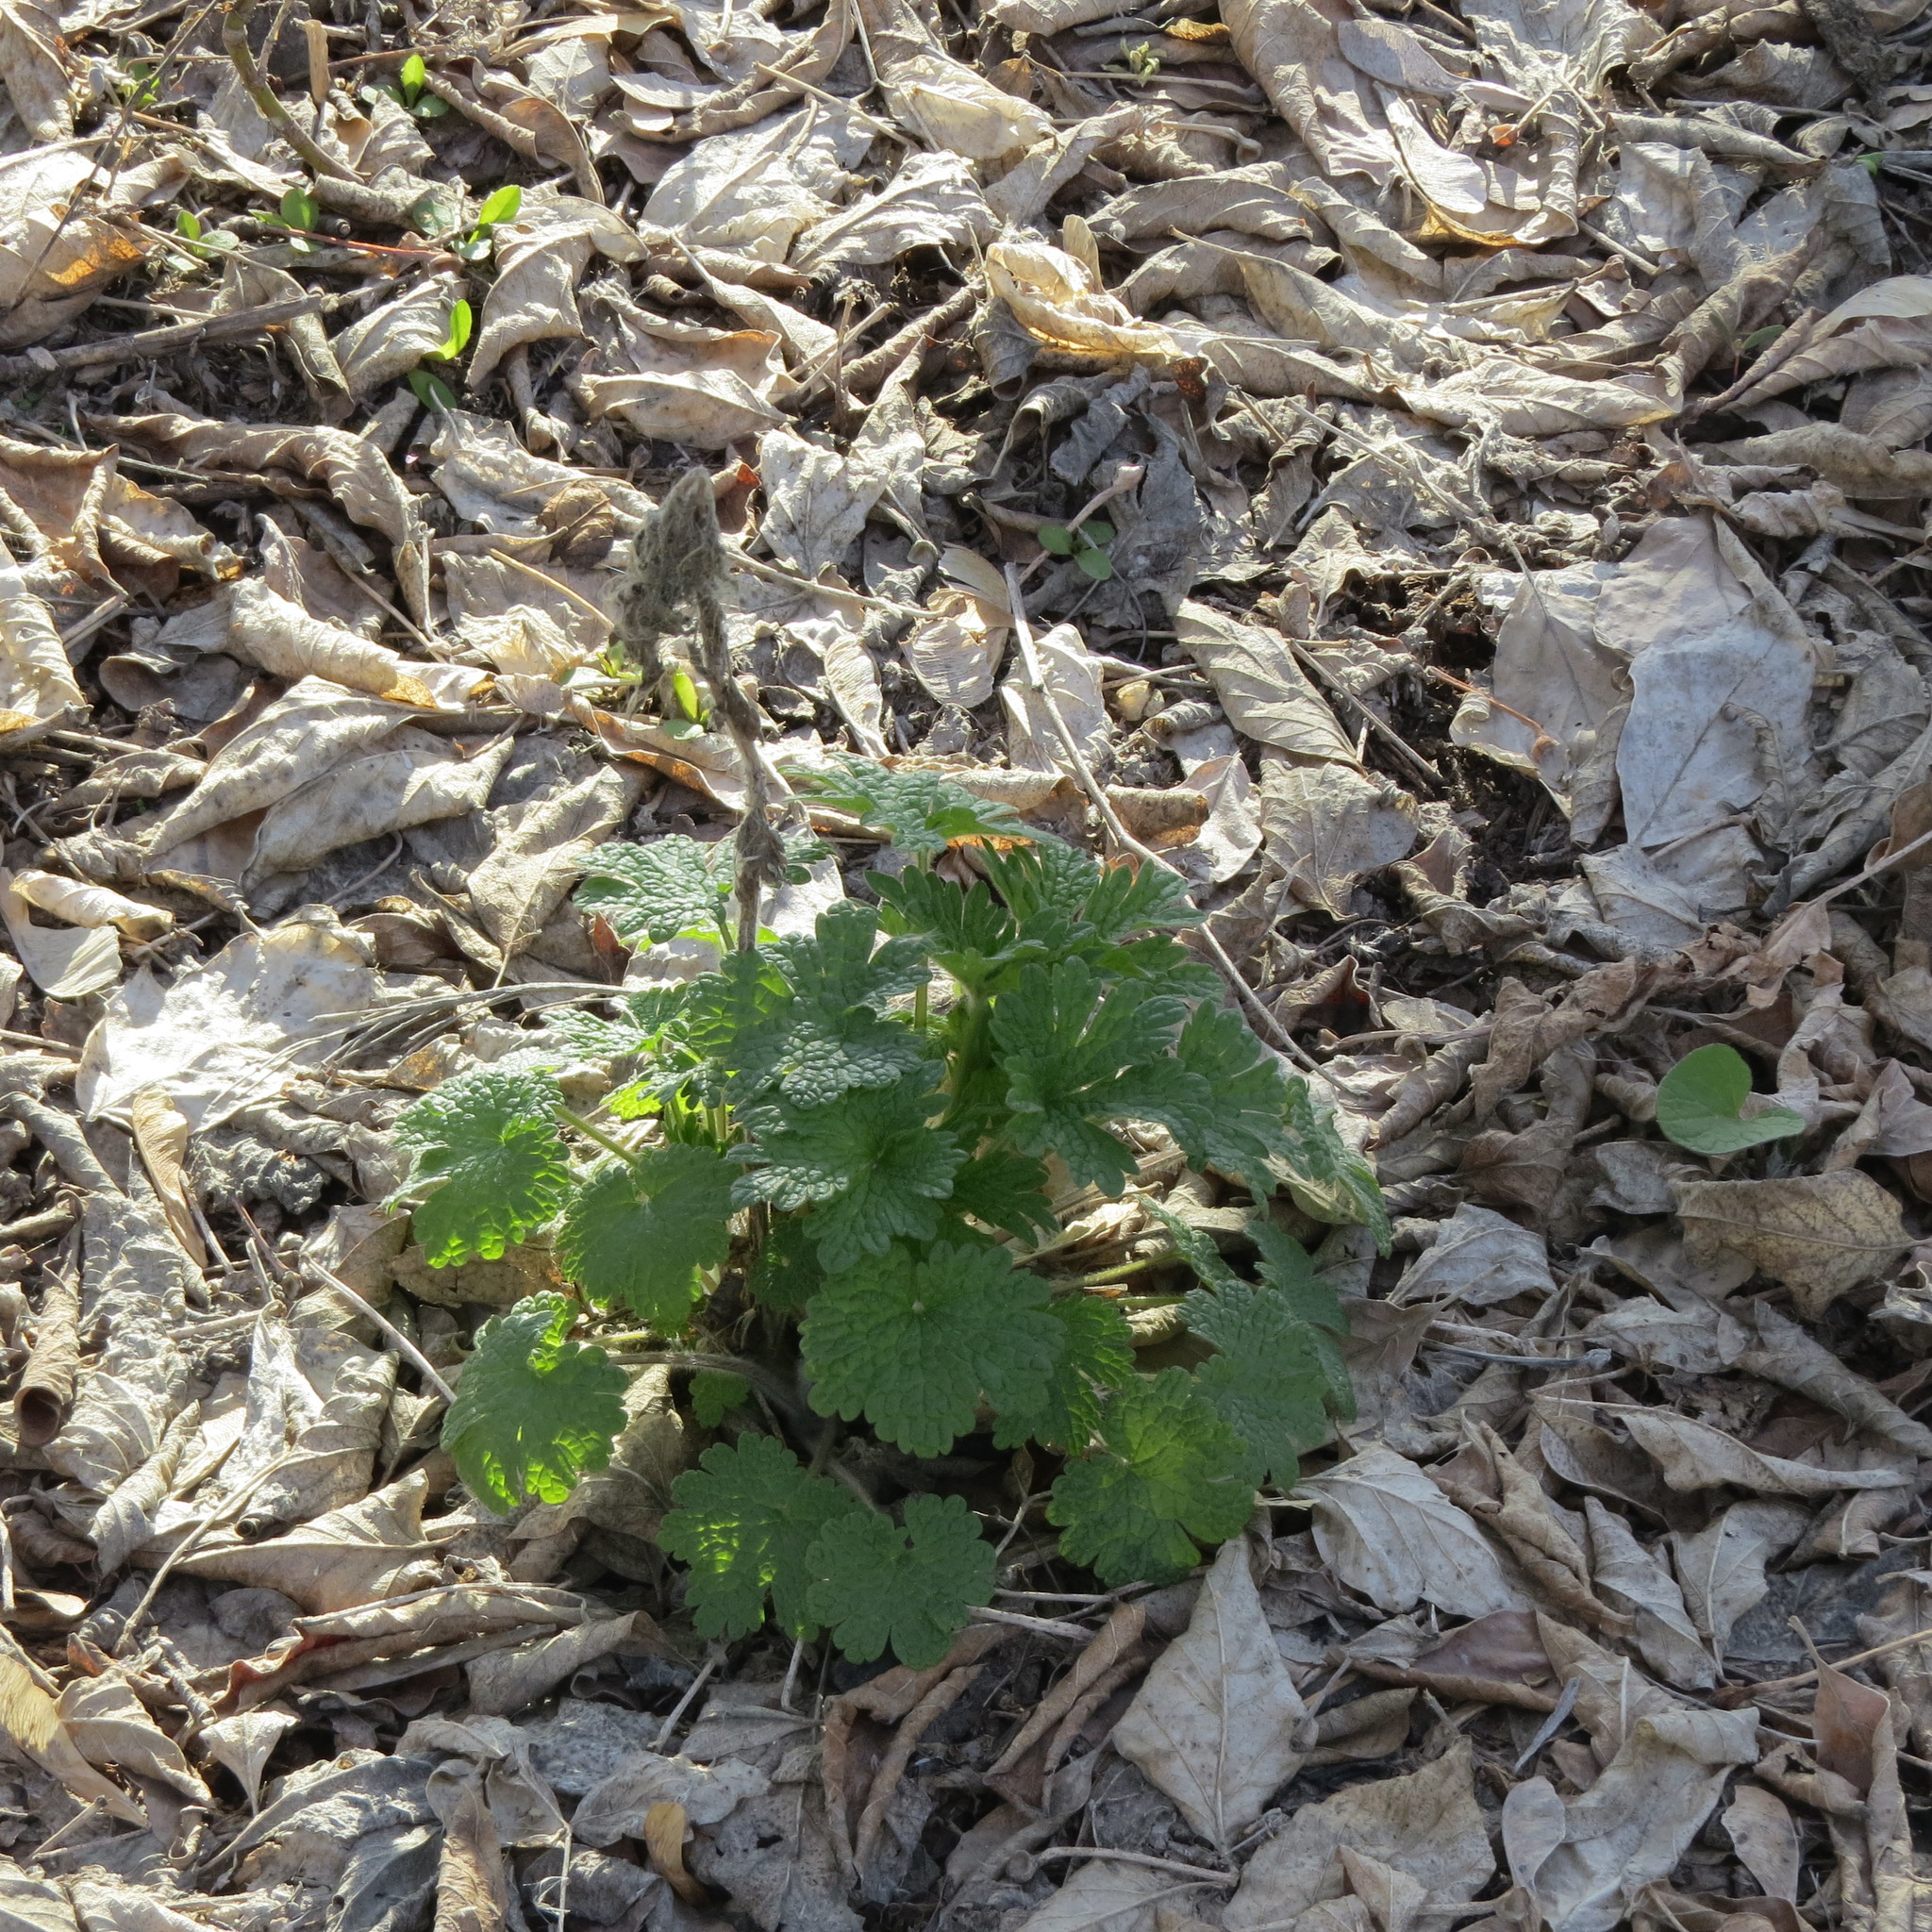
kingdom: Plantae
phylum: Tracheophyta
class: Magnoliopsida
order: Lamiales
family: Lamiaceae
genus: Leonurus
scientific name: Leonurus quinquelobatus
